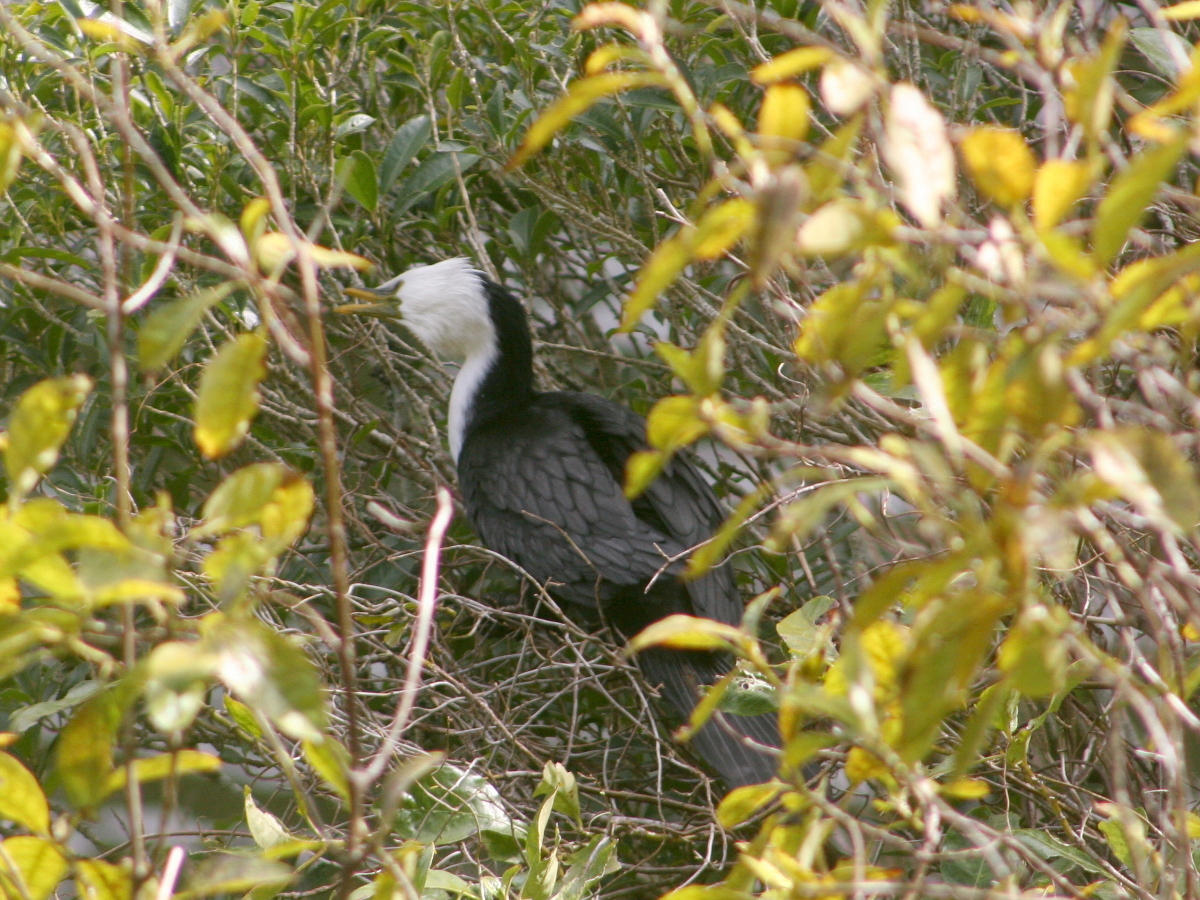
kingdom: Animalia
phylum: Chordata
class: Aves
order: Suliformes
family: Phalacrocoracidae
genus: Microcarbo
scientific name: Microcarbo melanoleucos
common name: Little pied cormorant
